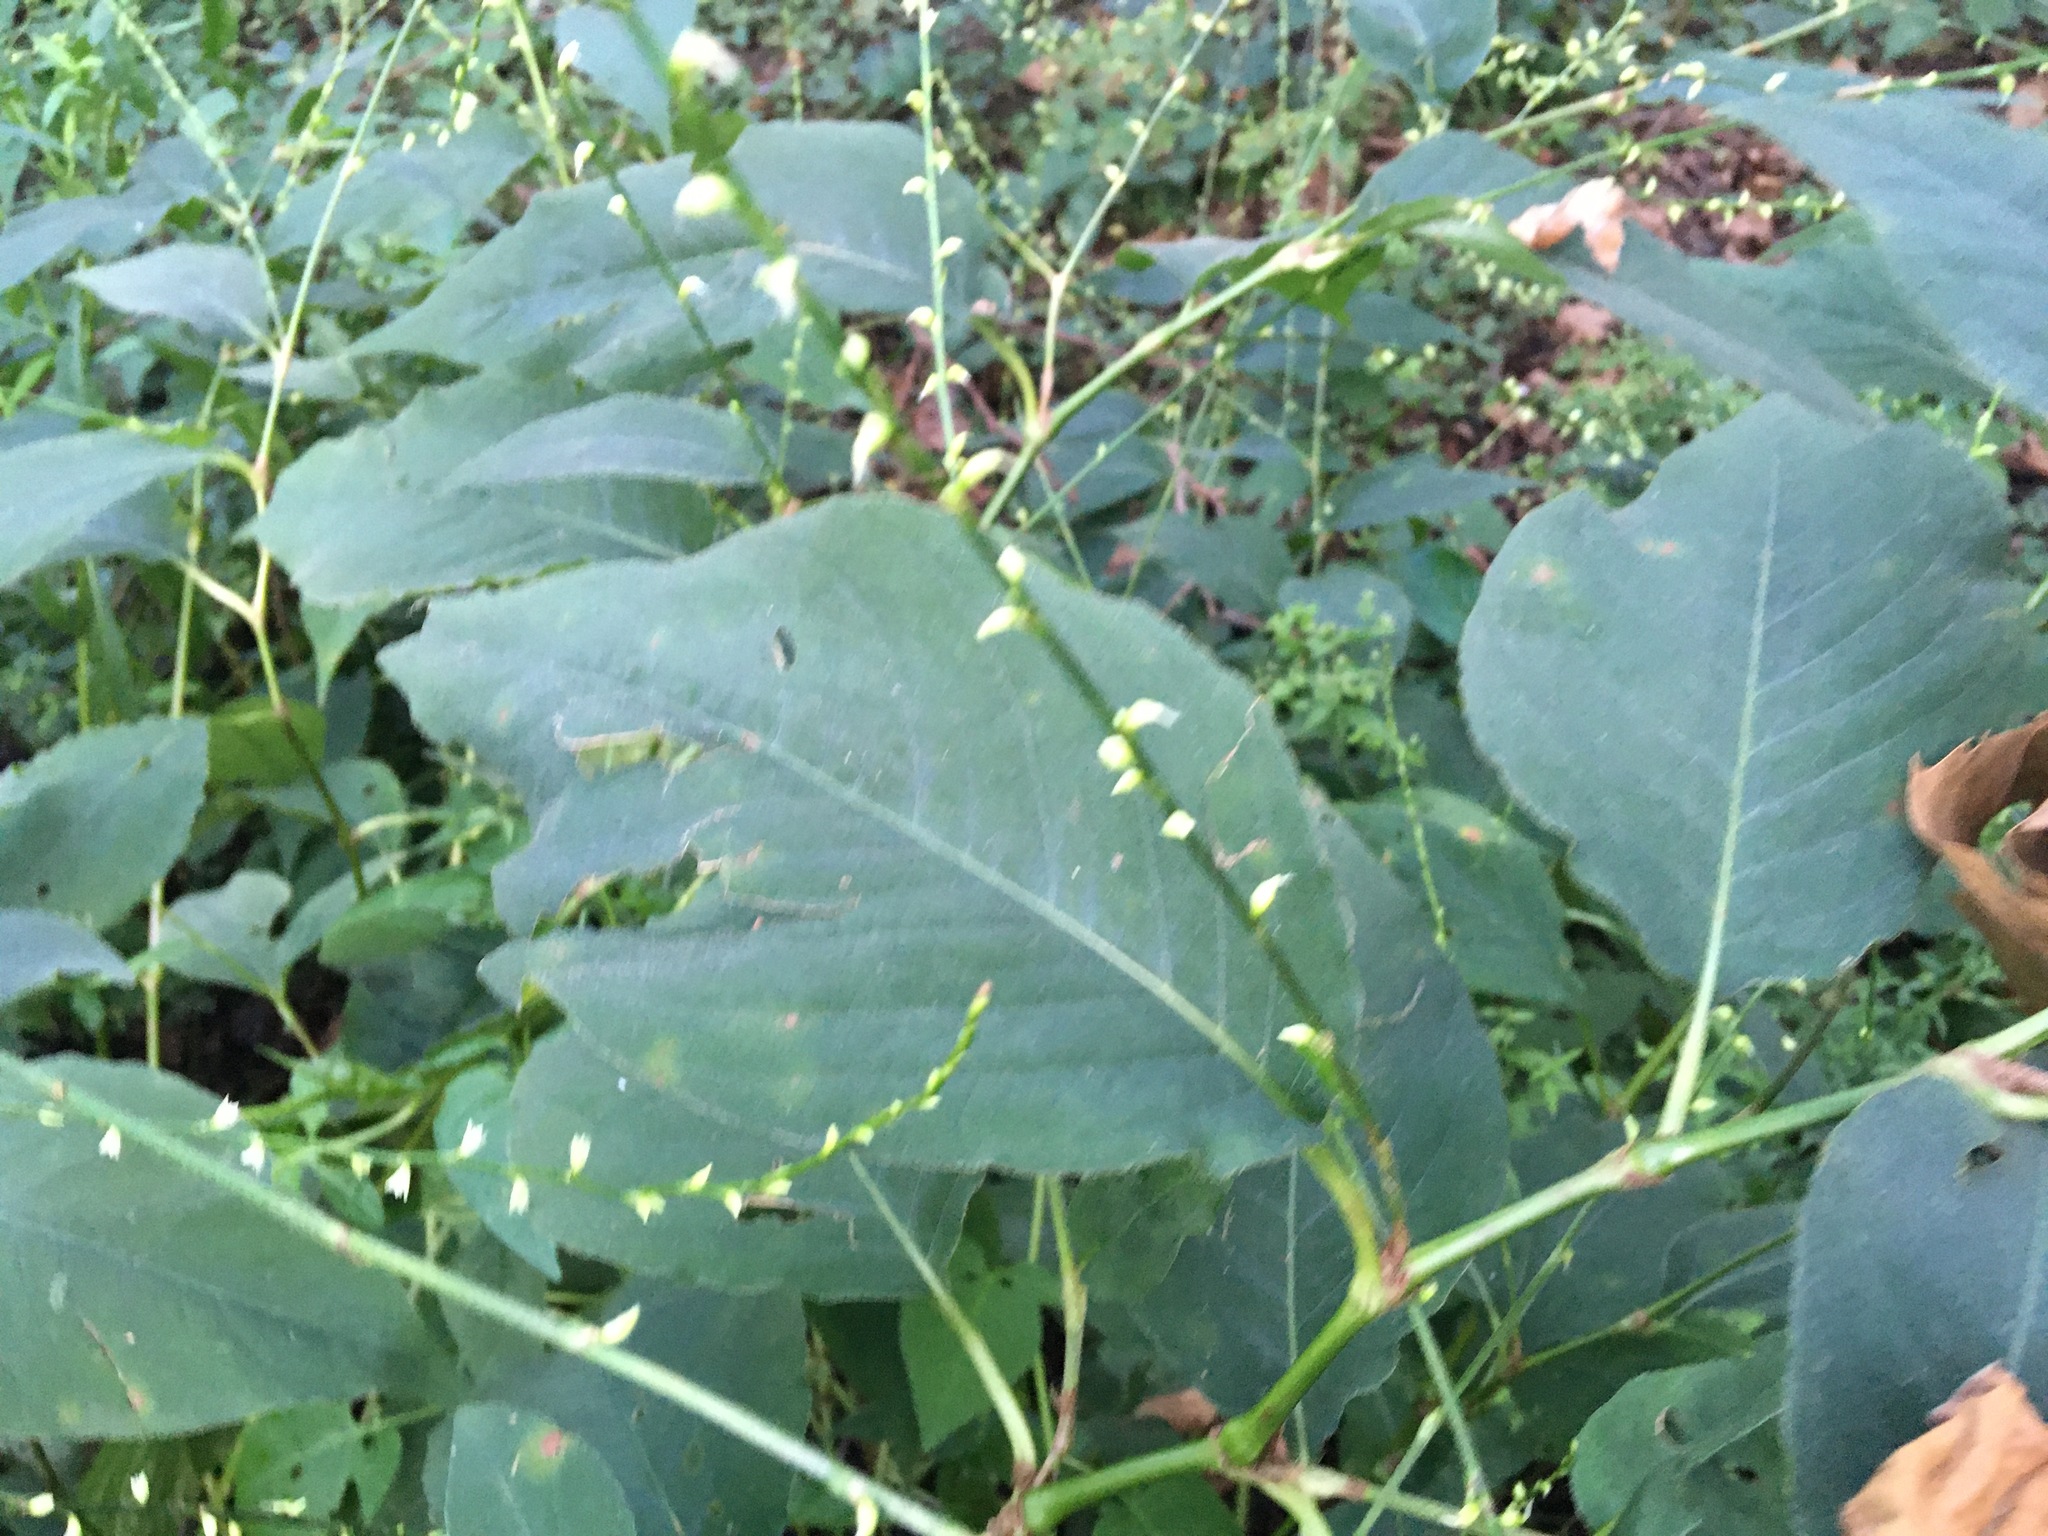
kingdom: Plantae
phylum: Tracheophyta
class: Magnoliopsida
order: Caryophyllales
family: Polygonaceae
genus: Persicaria
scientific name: Persicaria virginiana
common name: Jumpseed
